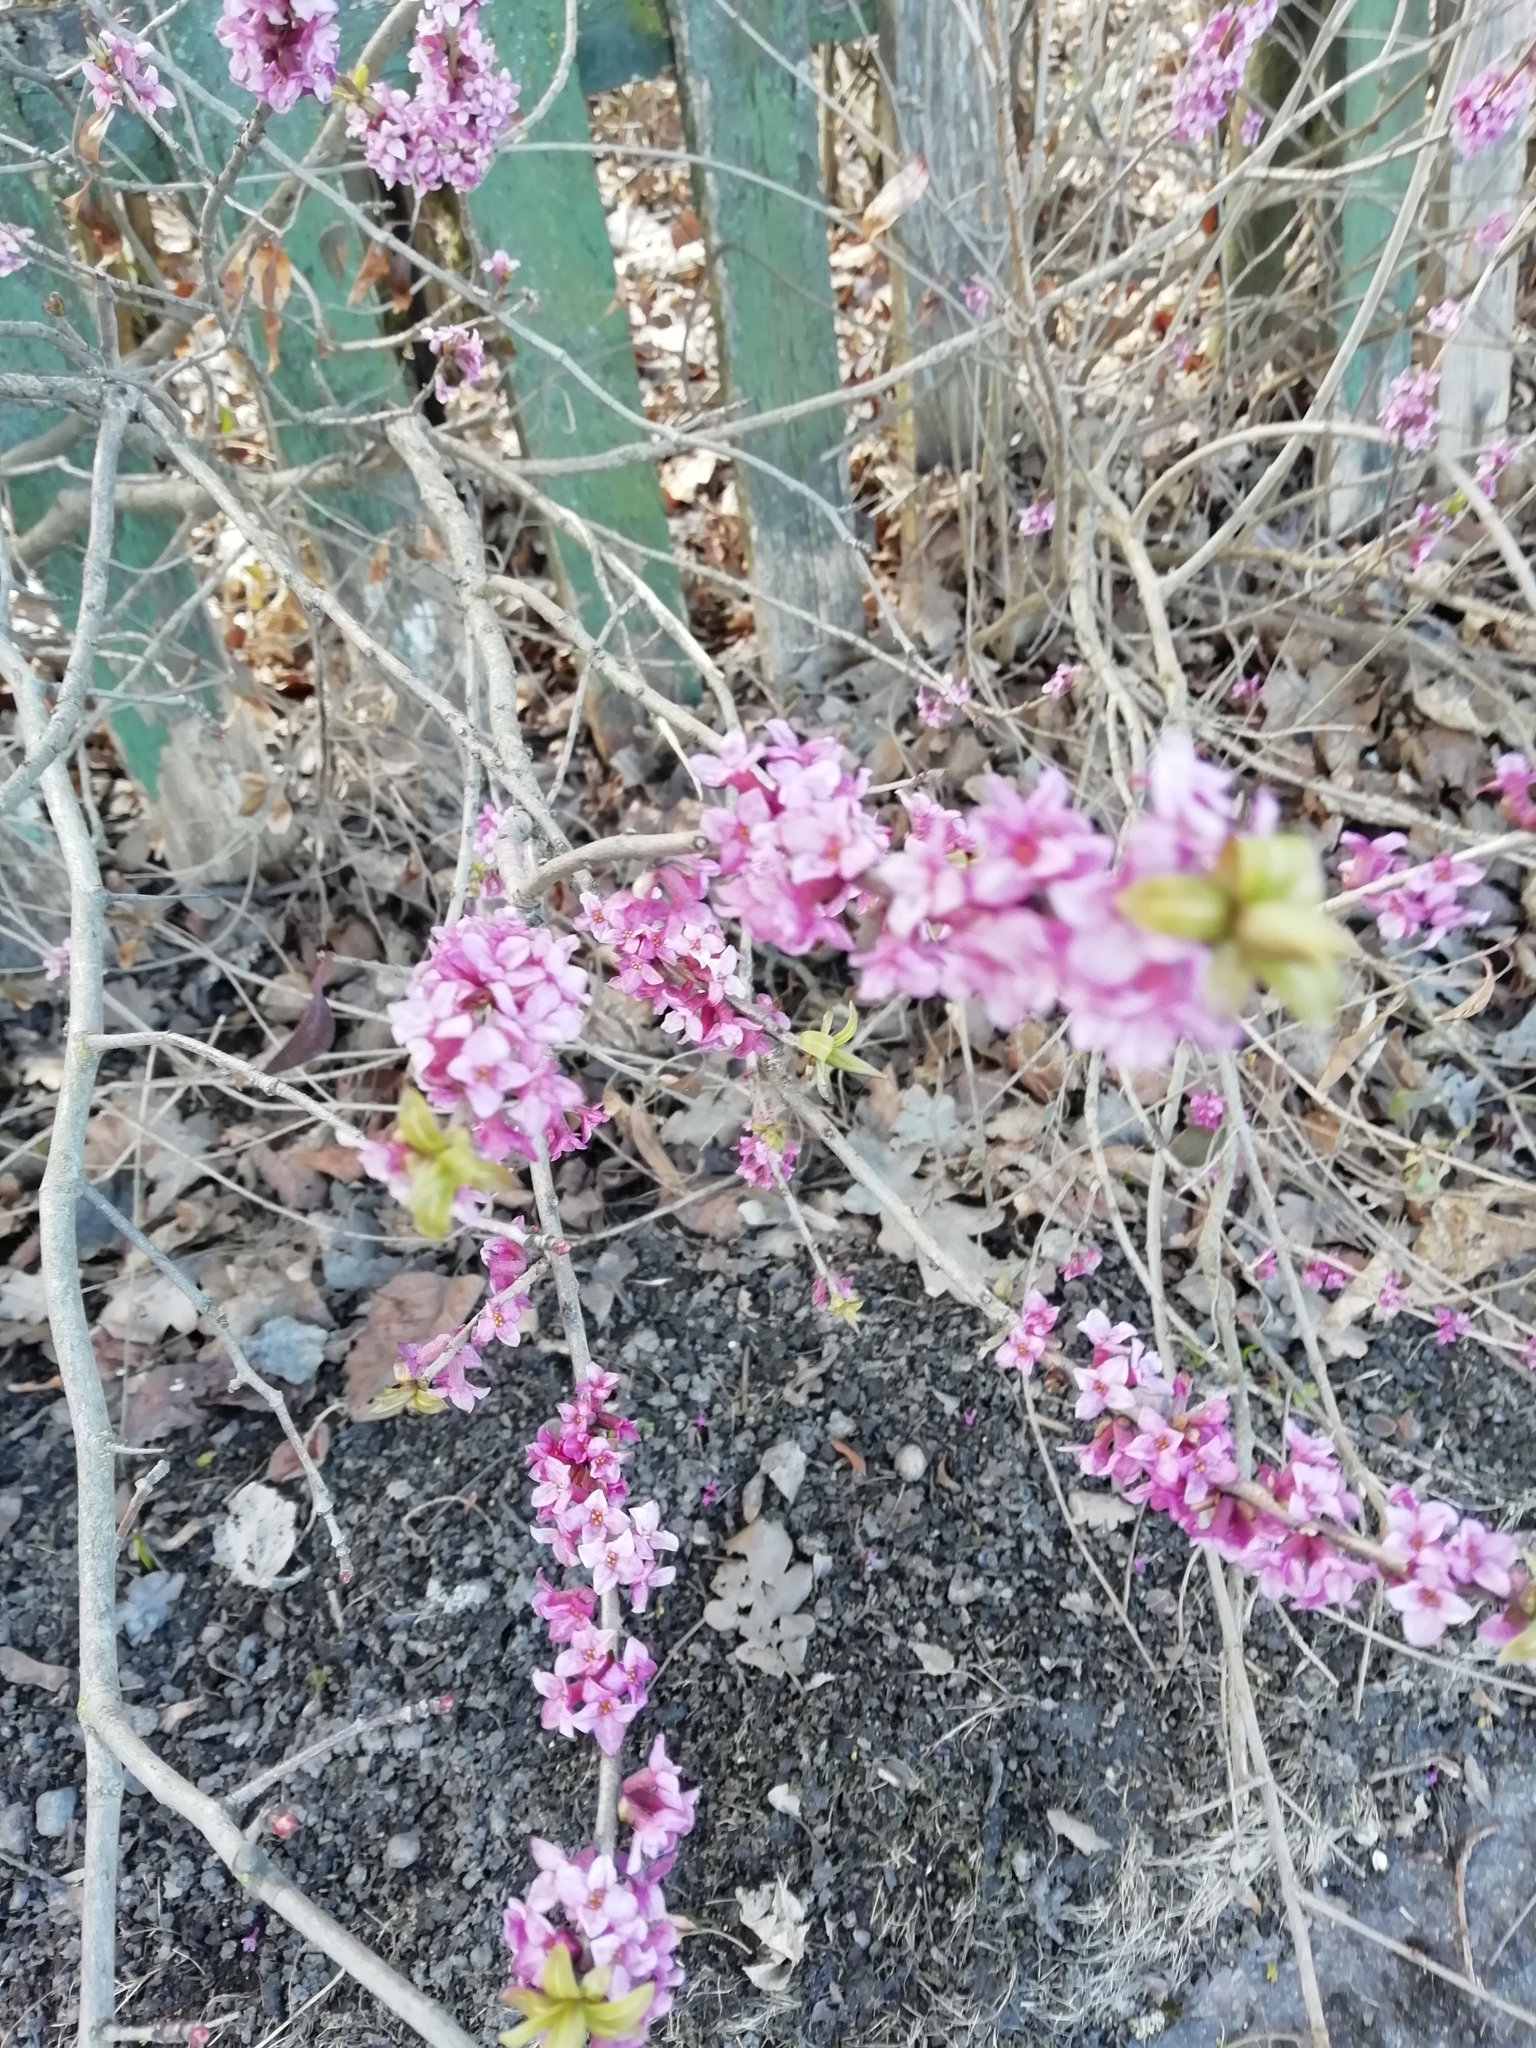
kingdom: Plantae
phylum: Tracheophyta
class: Magnoliopsida
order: Malvales
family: Thymelaeaceae
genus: Daphne
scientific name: Daphne mezereum
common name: Mezereon
